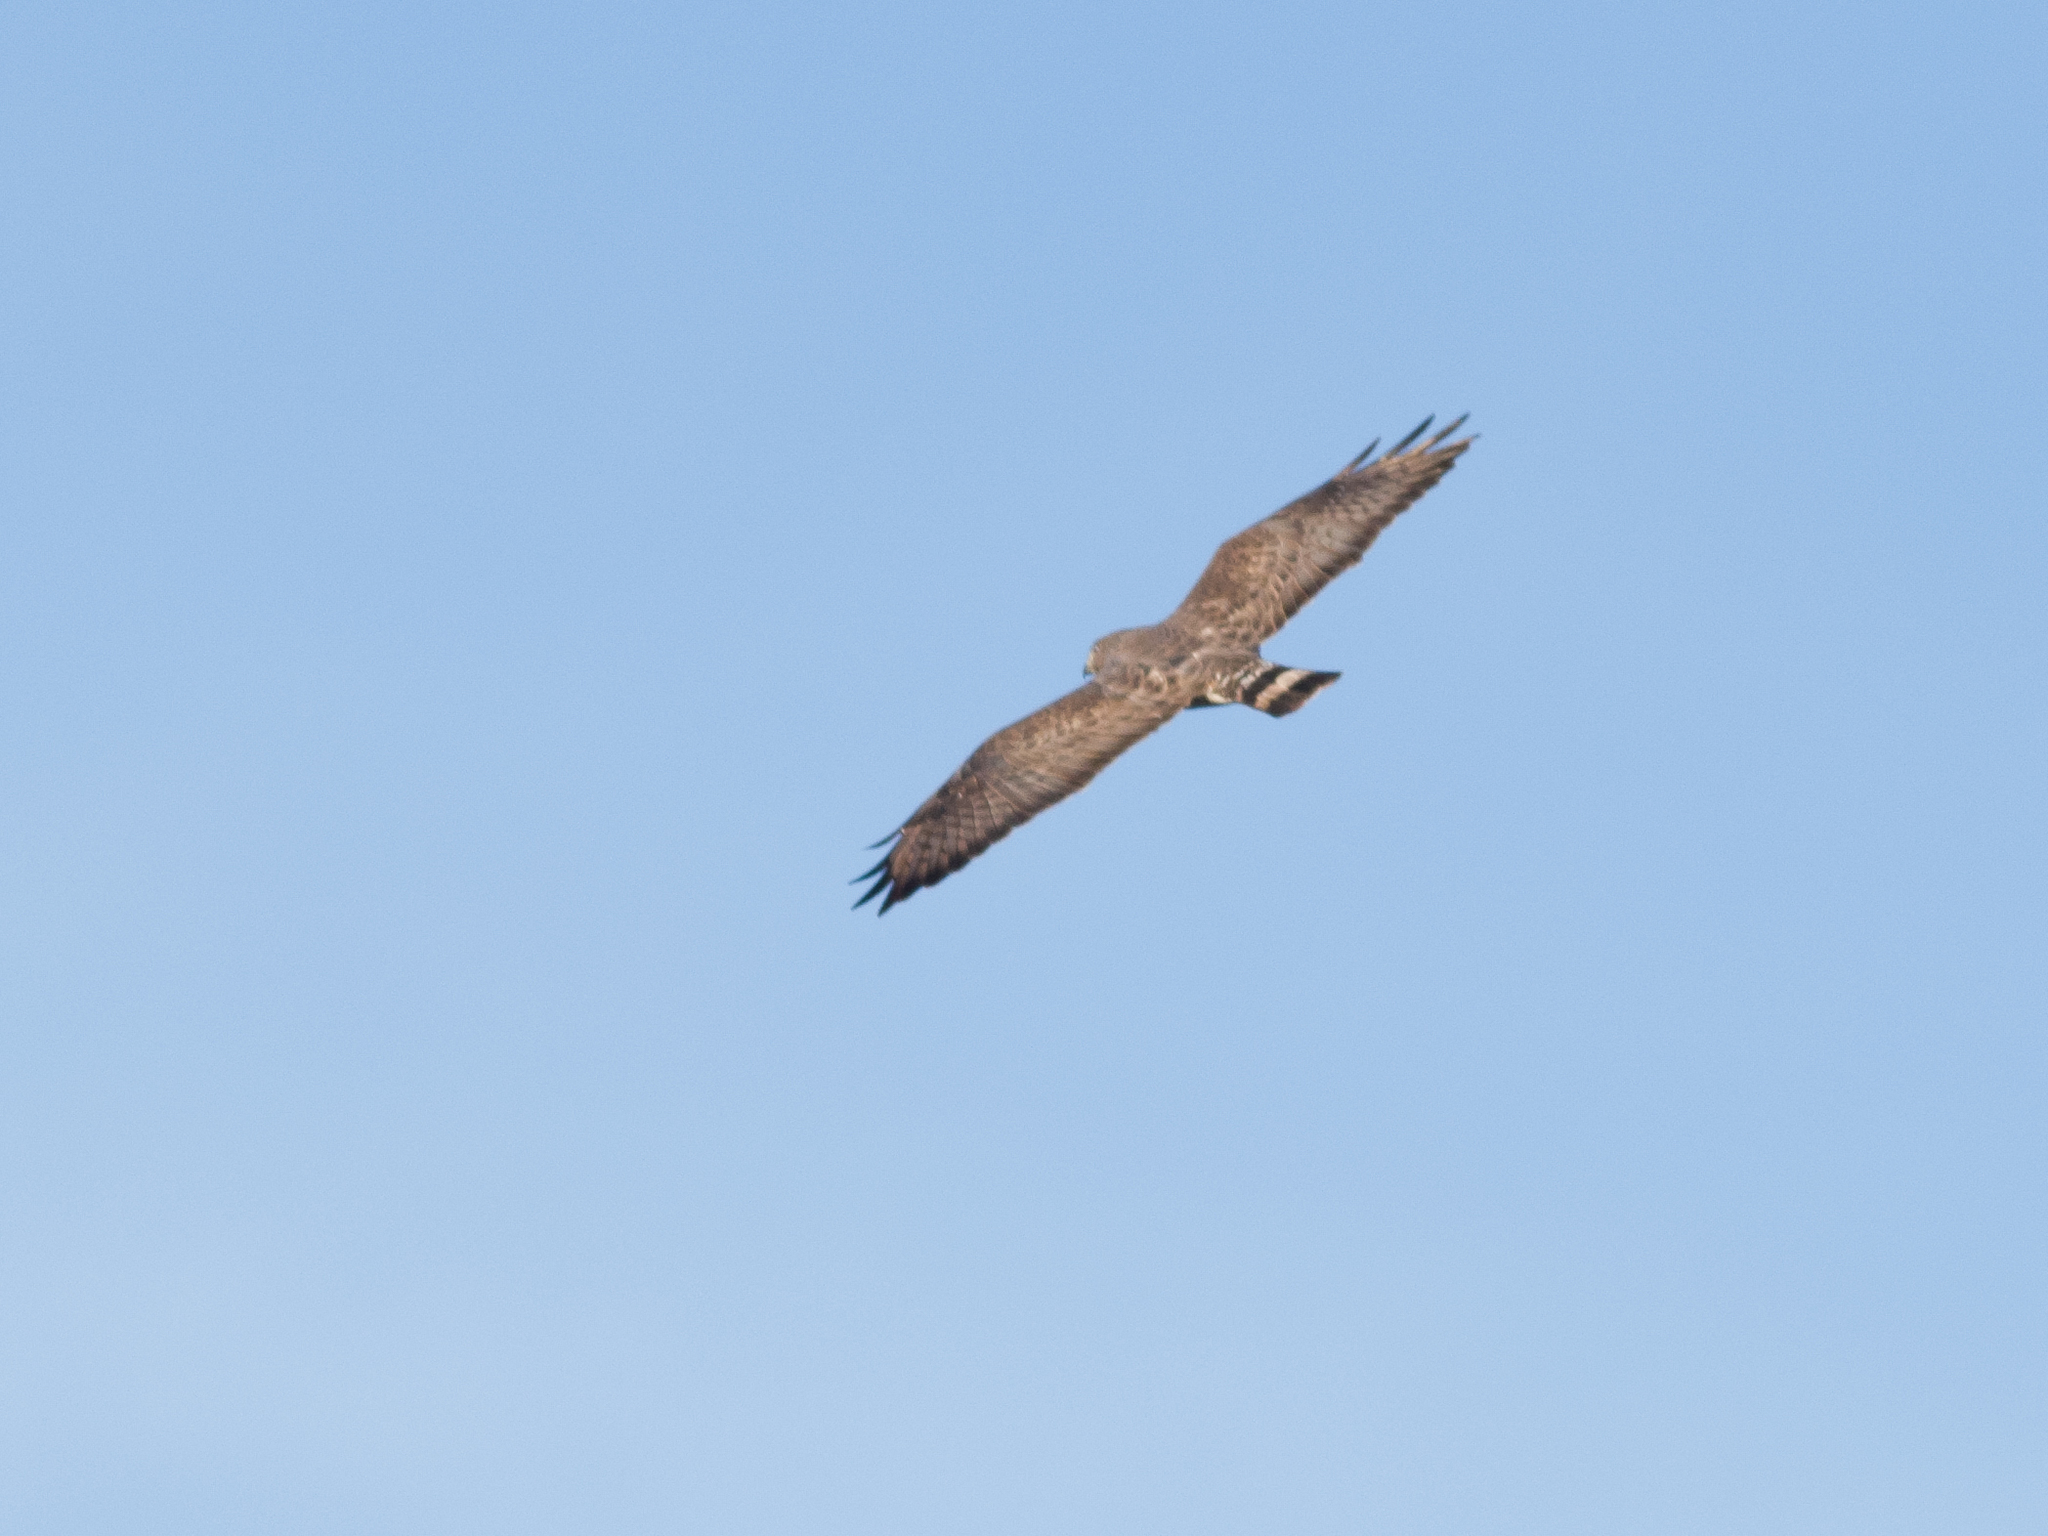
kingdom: Animalia
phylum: Chordata
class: Aves
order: Accipitriformes
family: Accipitridae
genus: Buteo
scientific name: Buteo platypterus
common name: Broad-winged hawk
